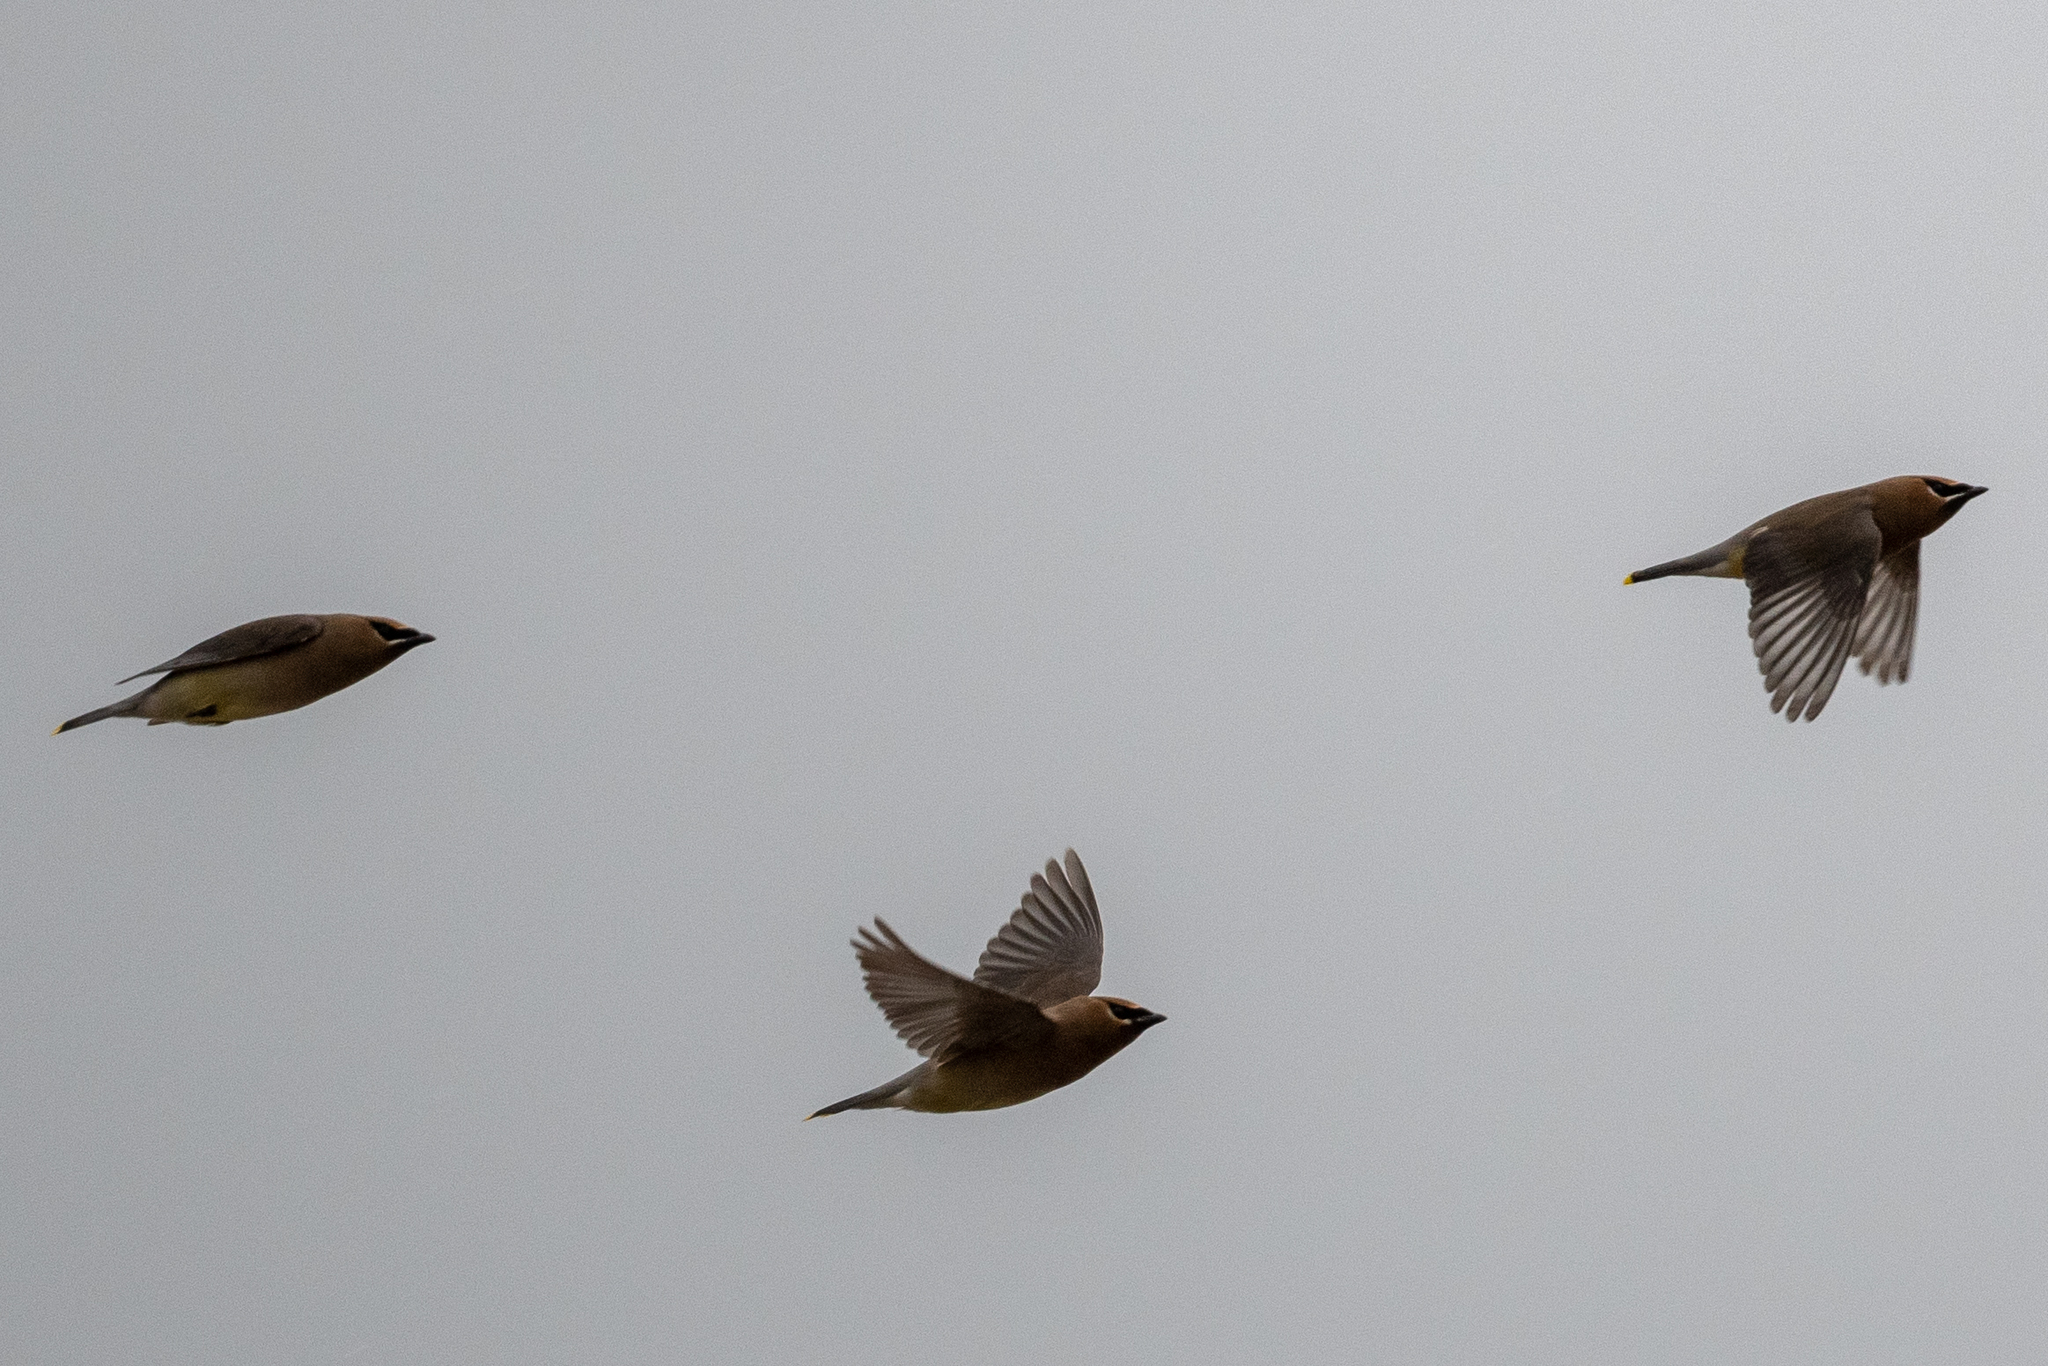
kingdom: Animalia
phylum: Chordata
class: Aves
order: Passeriformes
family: Bombycillidae
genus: Bombycilla
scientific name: Bombycilla cedrorum
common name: Cedar waxwing
